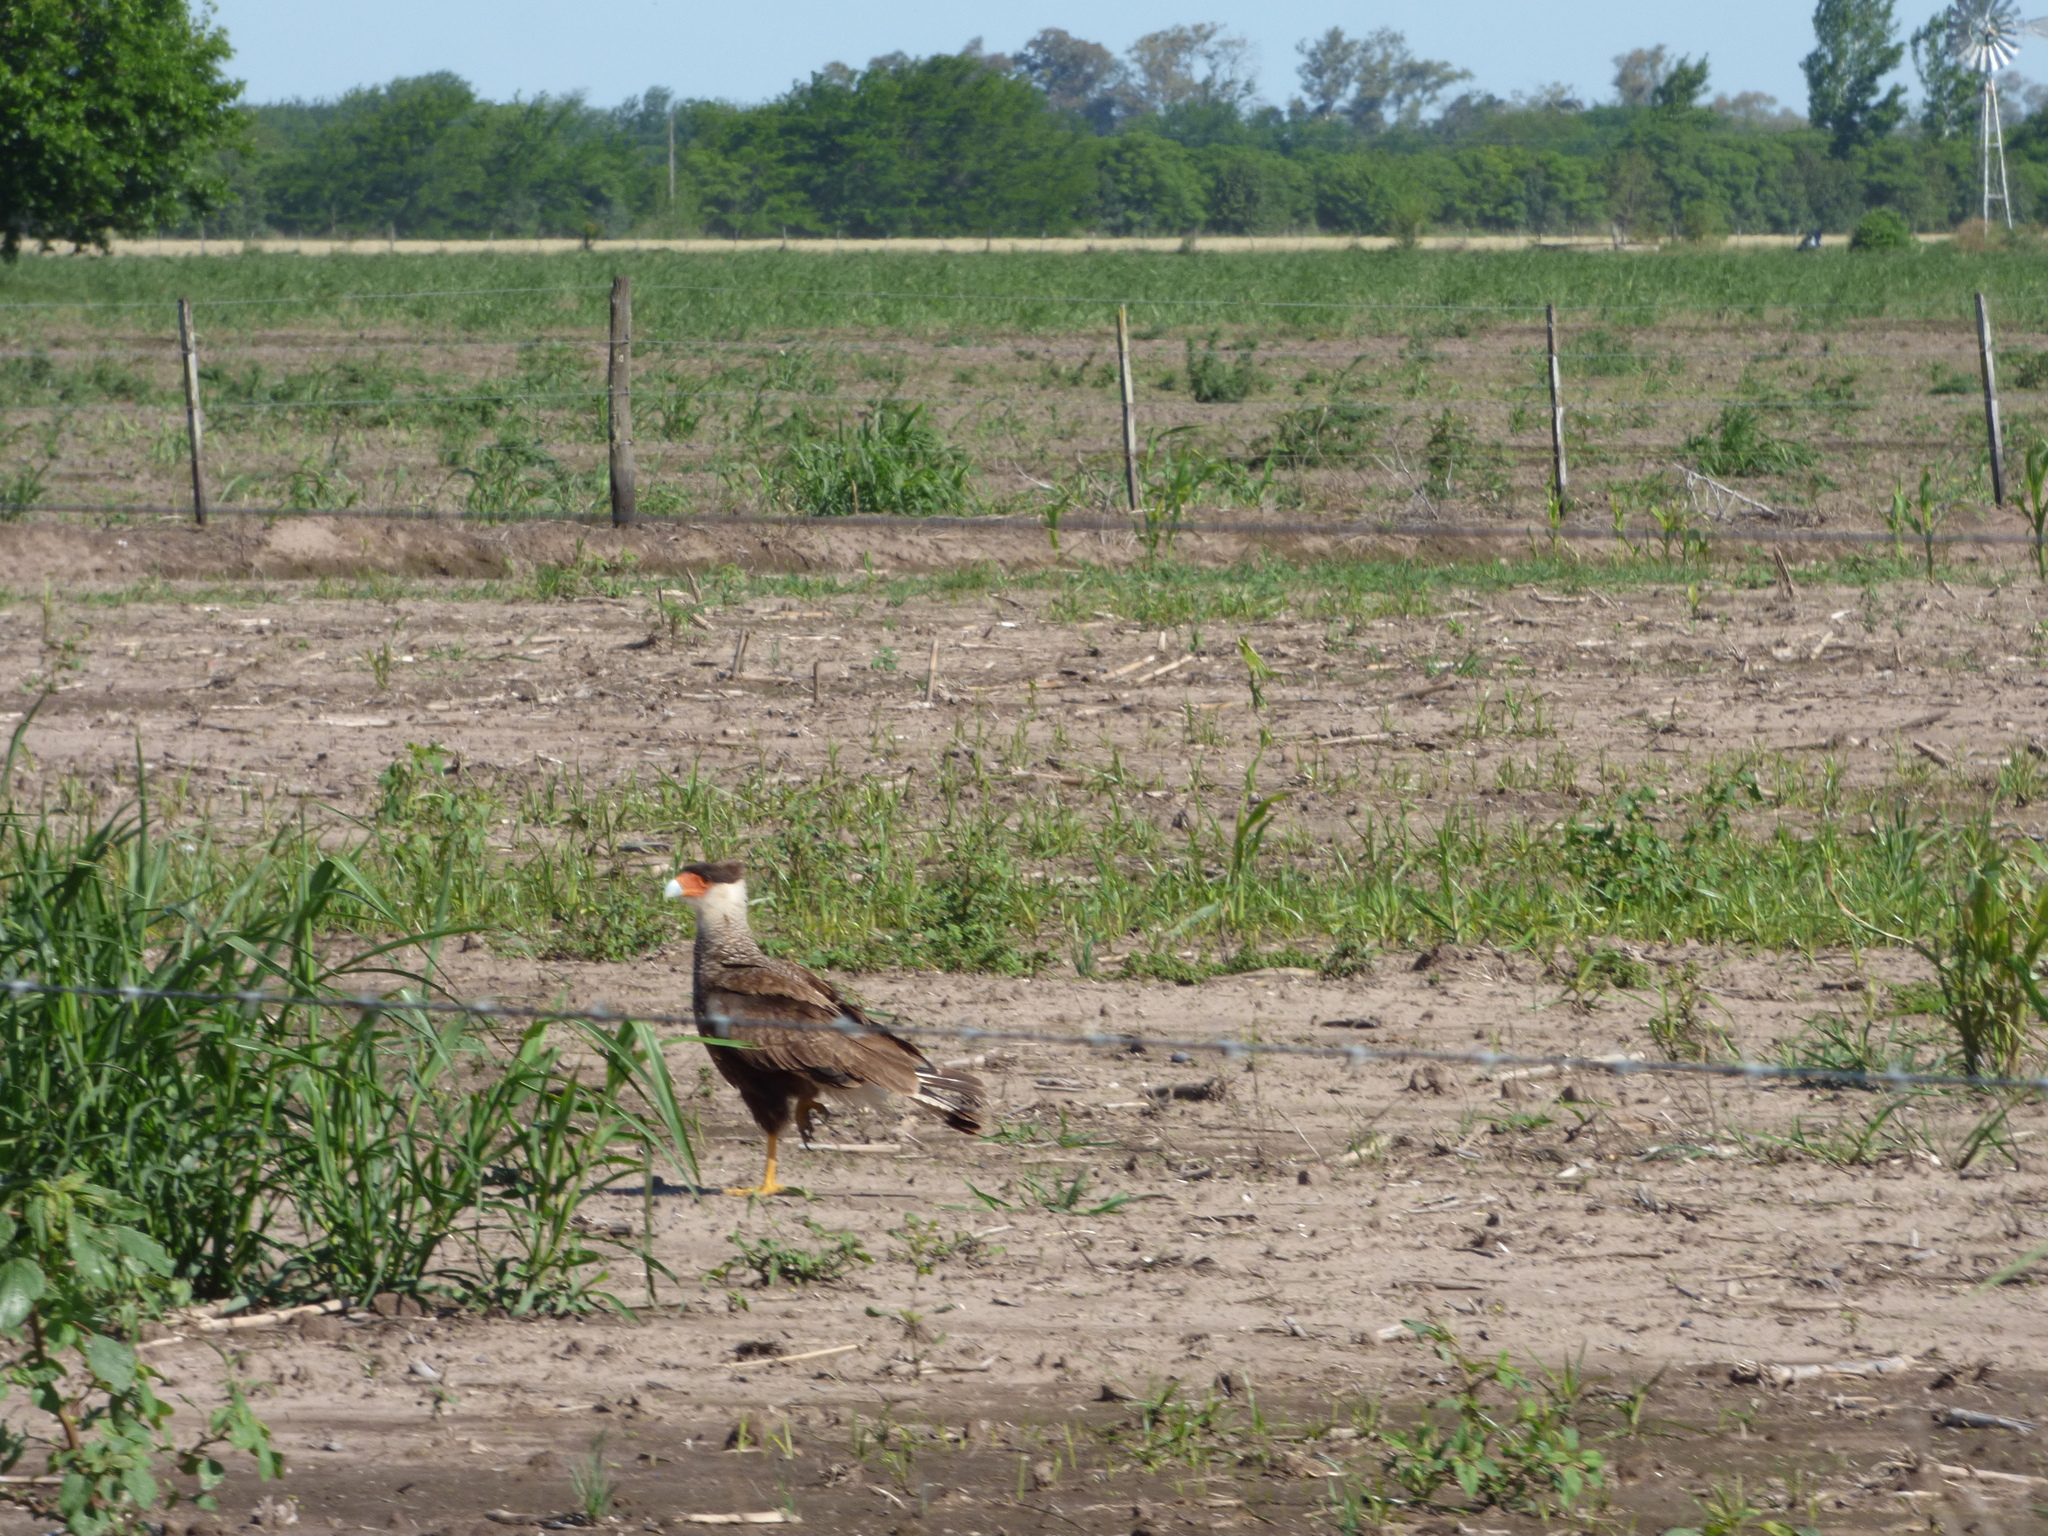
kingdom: Animalia
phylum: Chordata
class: Aves
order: Falconiformes
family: Falconidae
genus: Caracara
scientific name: Caracara plancus
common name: Southern caracara
